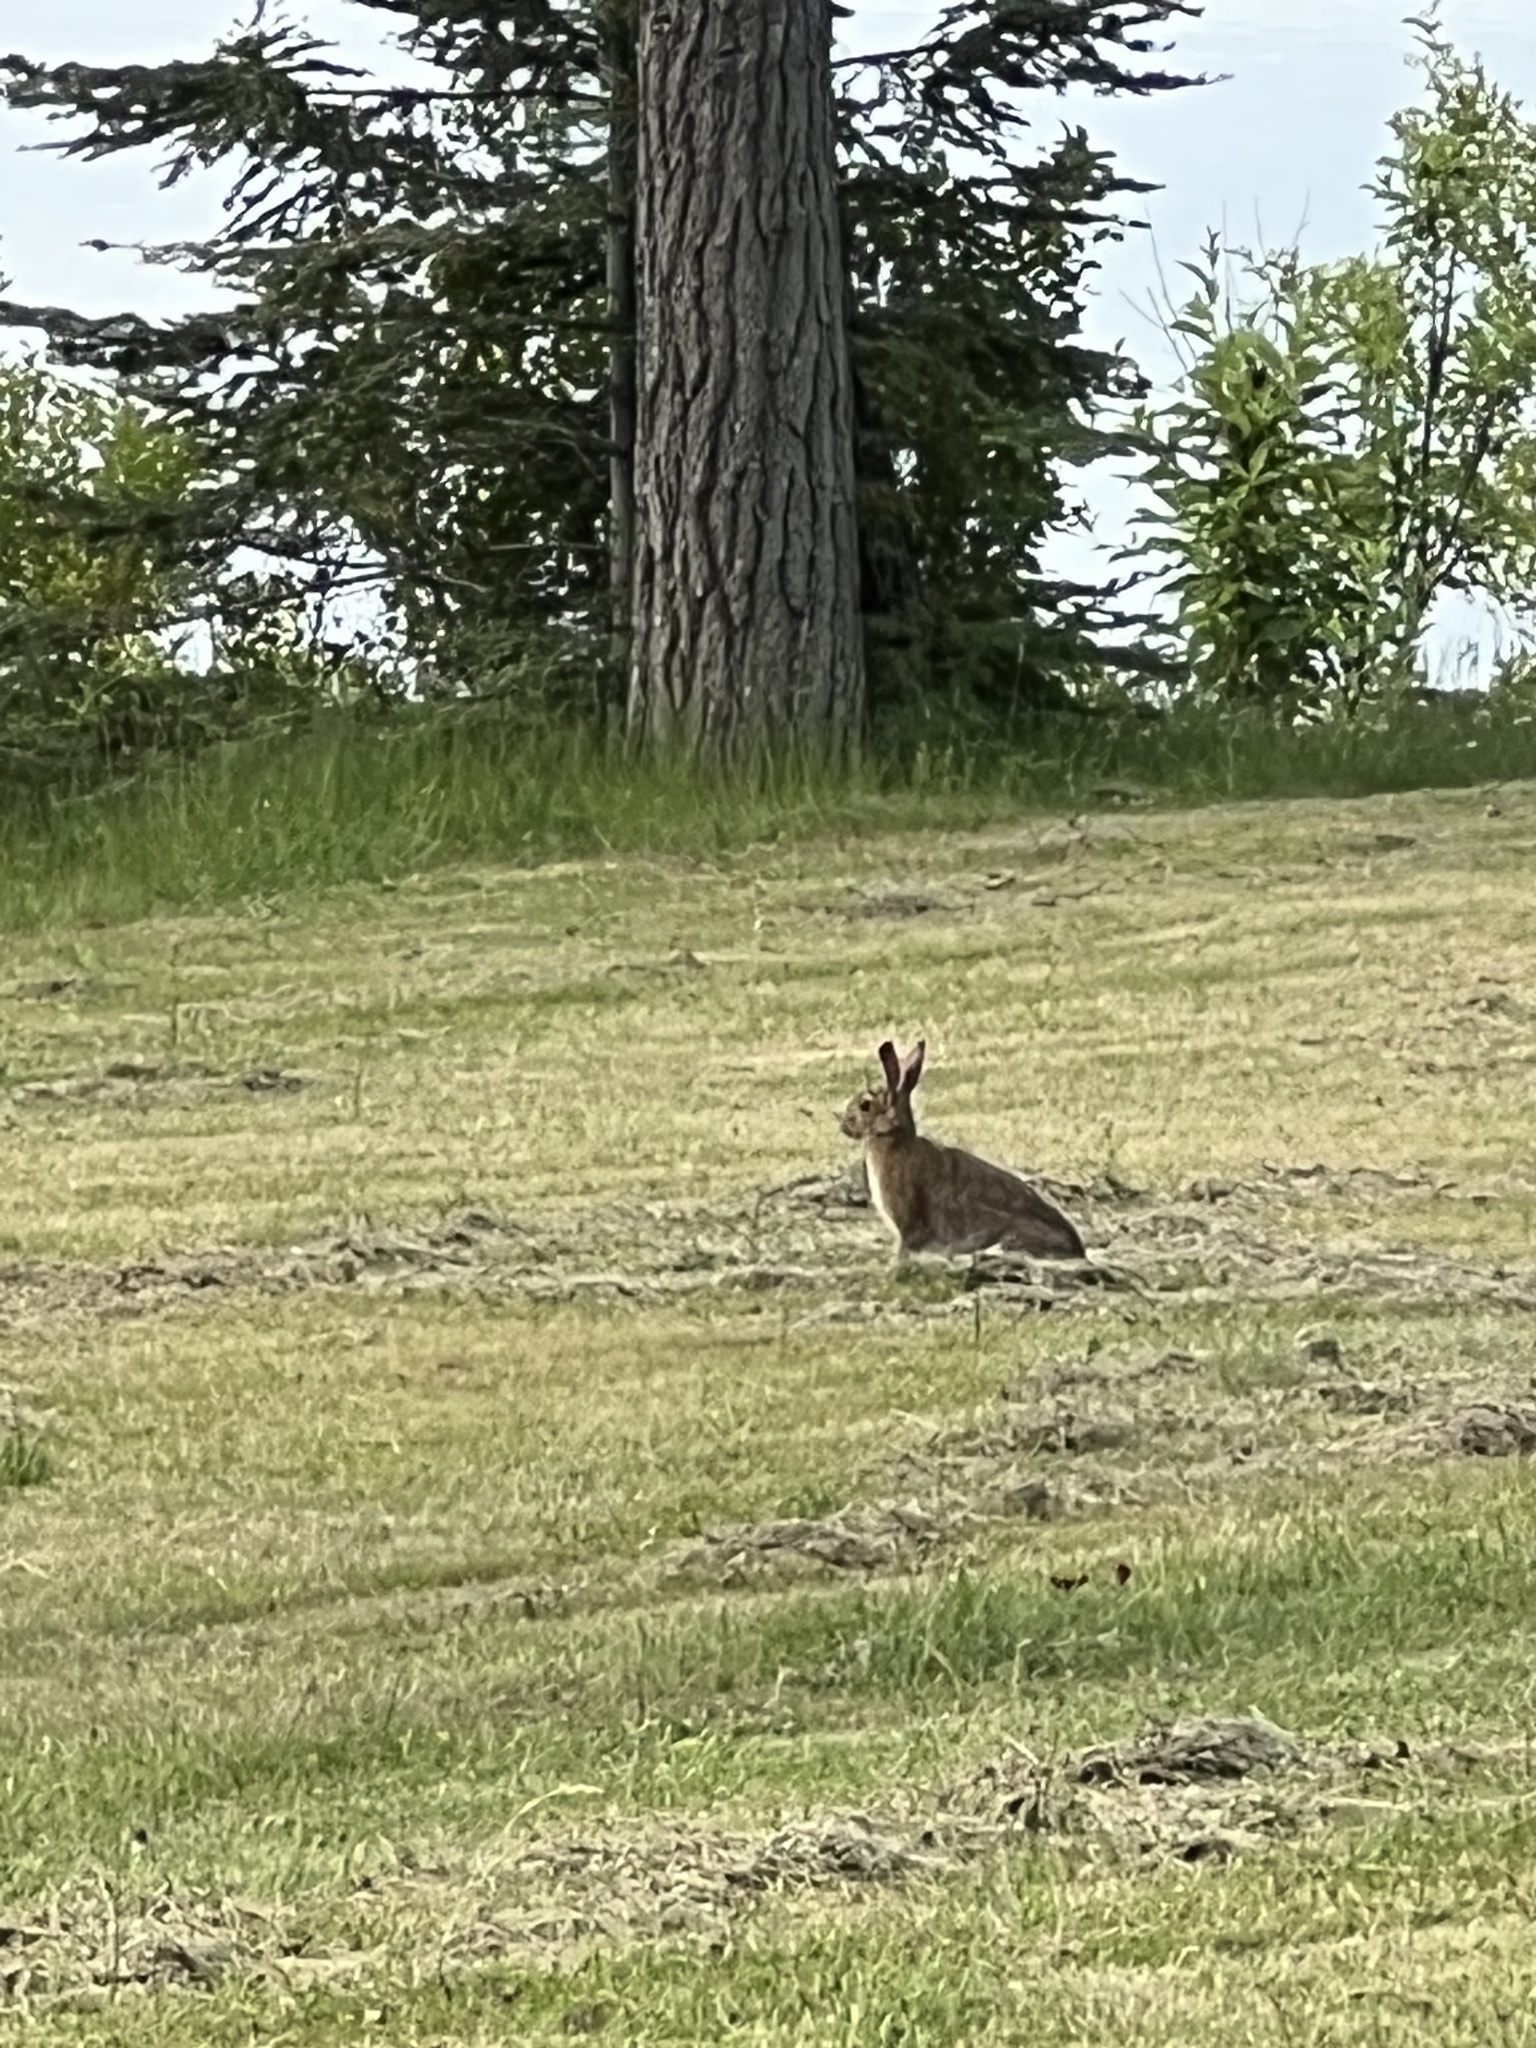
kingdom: Animalia
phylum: Chordata
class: Mammalia
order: Lagomorpha
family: Leporidae
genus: Sylvilagus
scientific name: Sylvilagus floridanus
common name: Eastern cottontail
